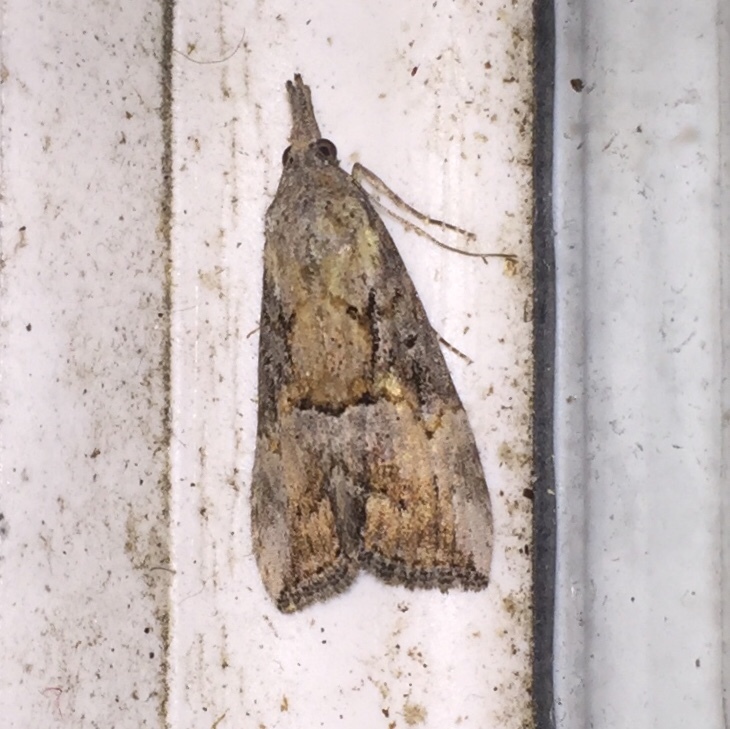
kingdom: Animalia
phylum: Arthropoda
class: Insecta
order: Lepidoptera
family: Erebidae
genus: Hypena
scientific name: Hypena scabra
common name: Green cloverworm
